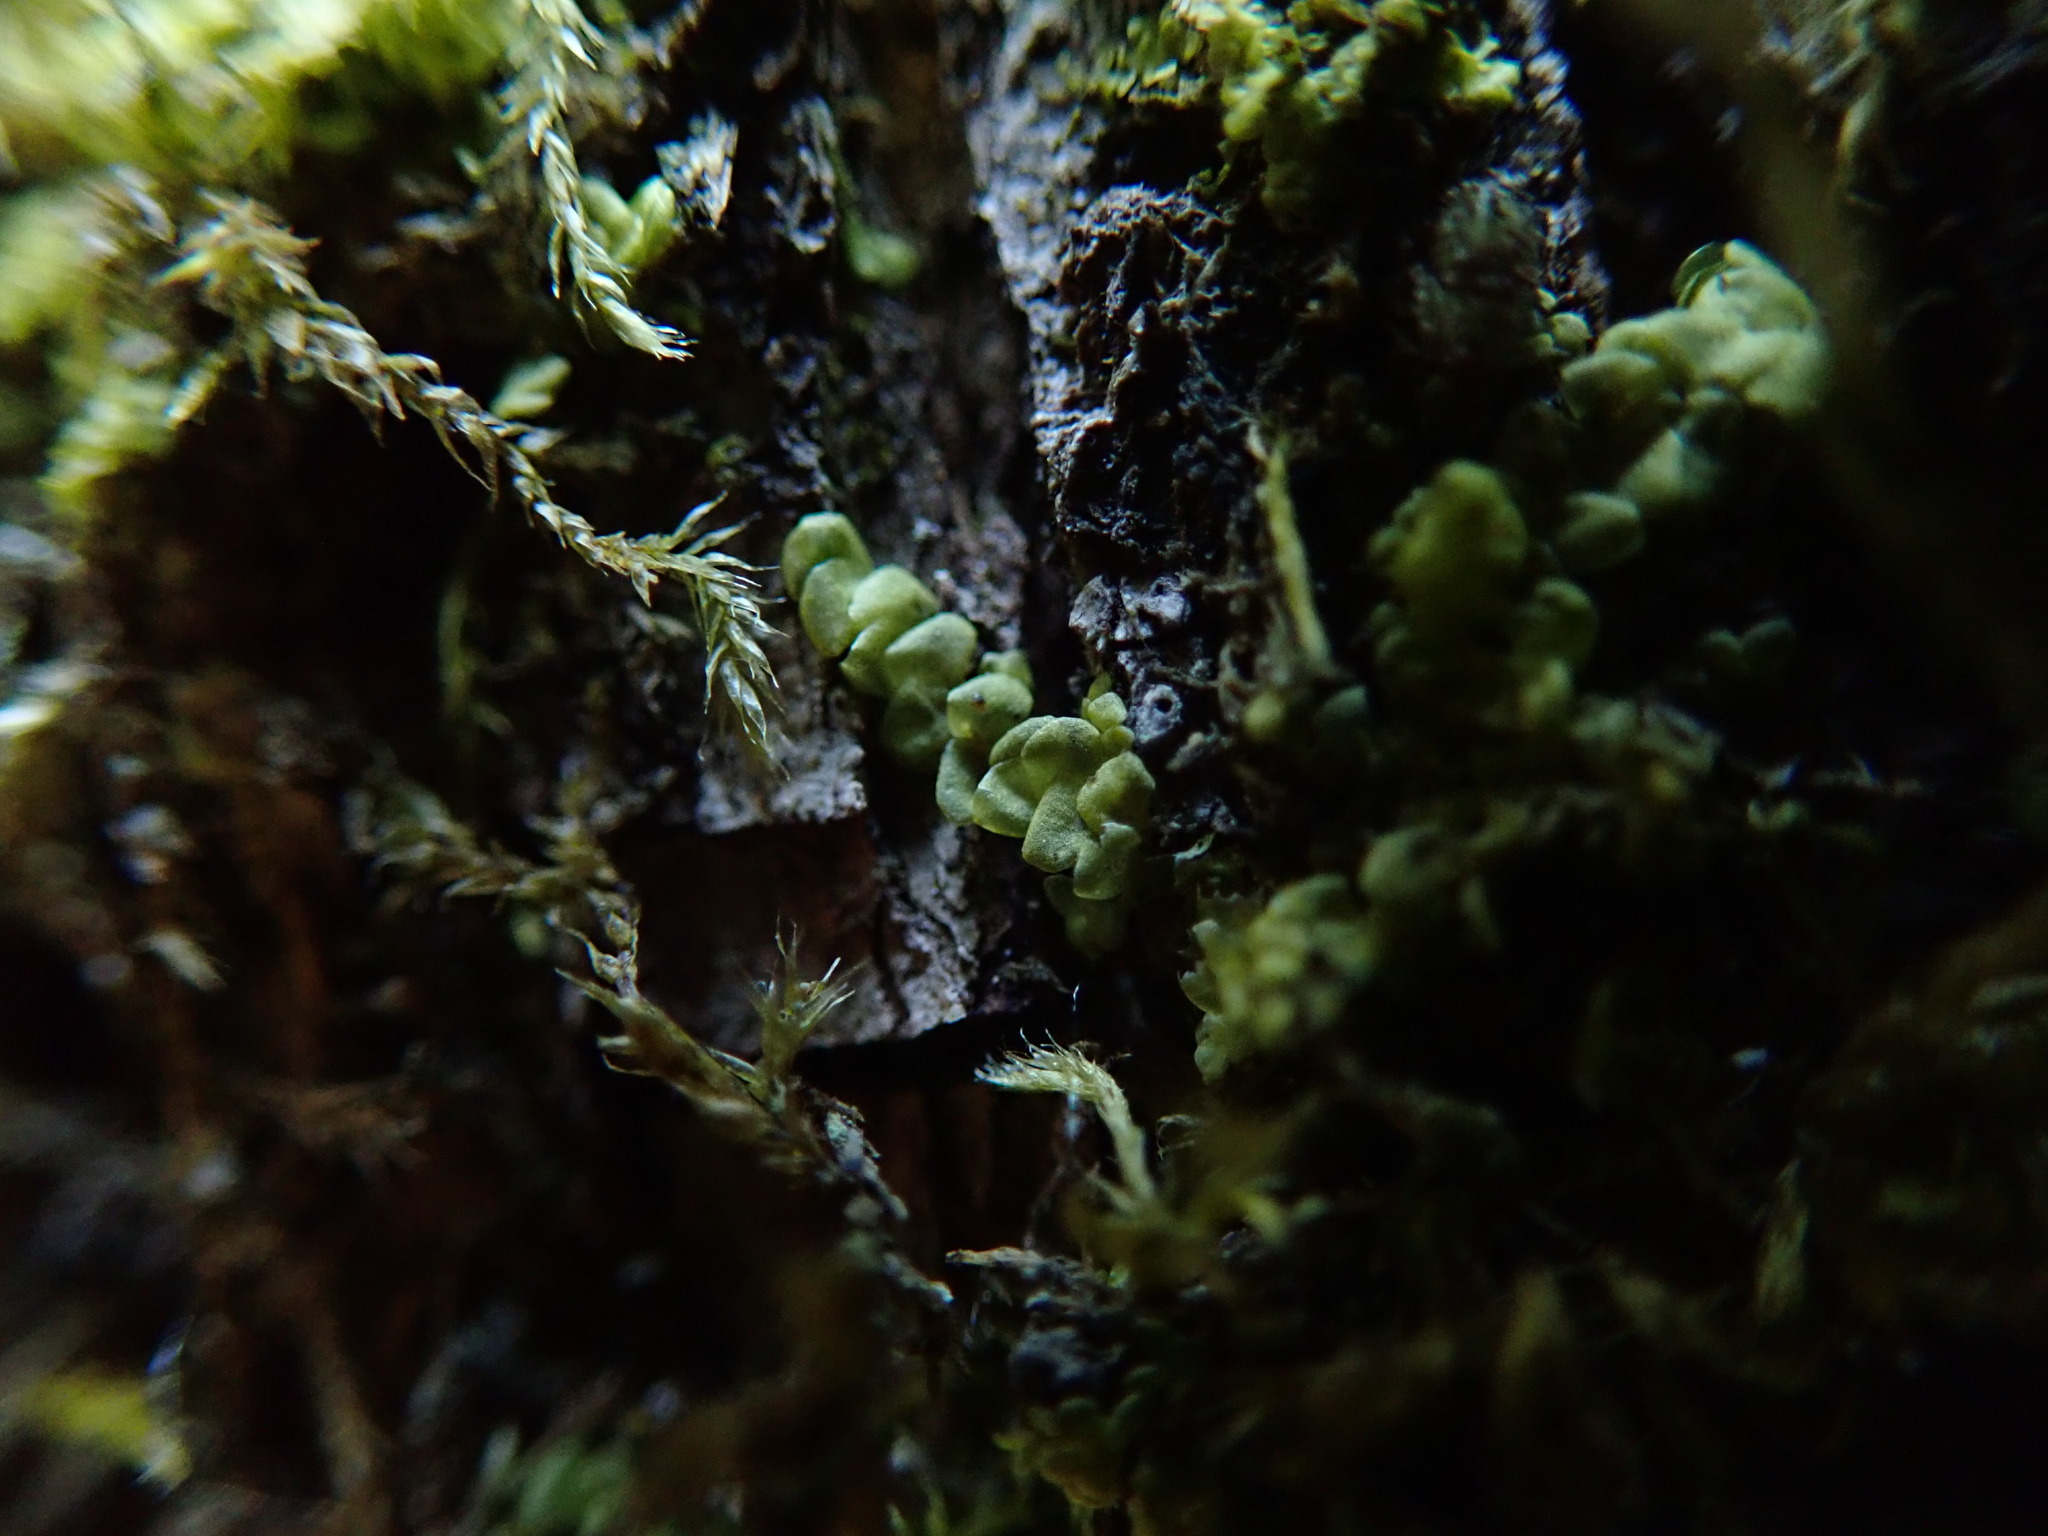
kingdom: Plantae
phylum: Marchantiophyta
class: Jungermanniopsida
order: Porellales
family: Radulaceae
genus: Radula
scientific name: Radula complanata
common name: Flat-leaved scalewort
